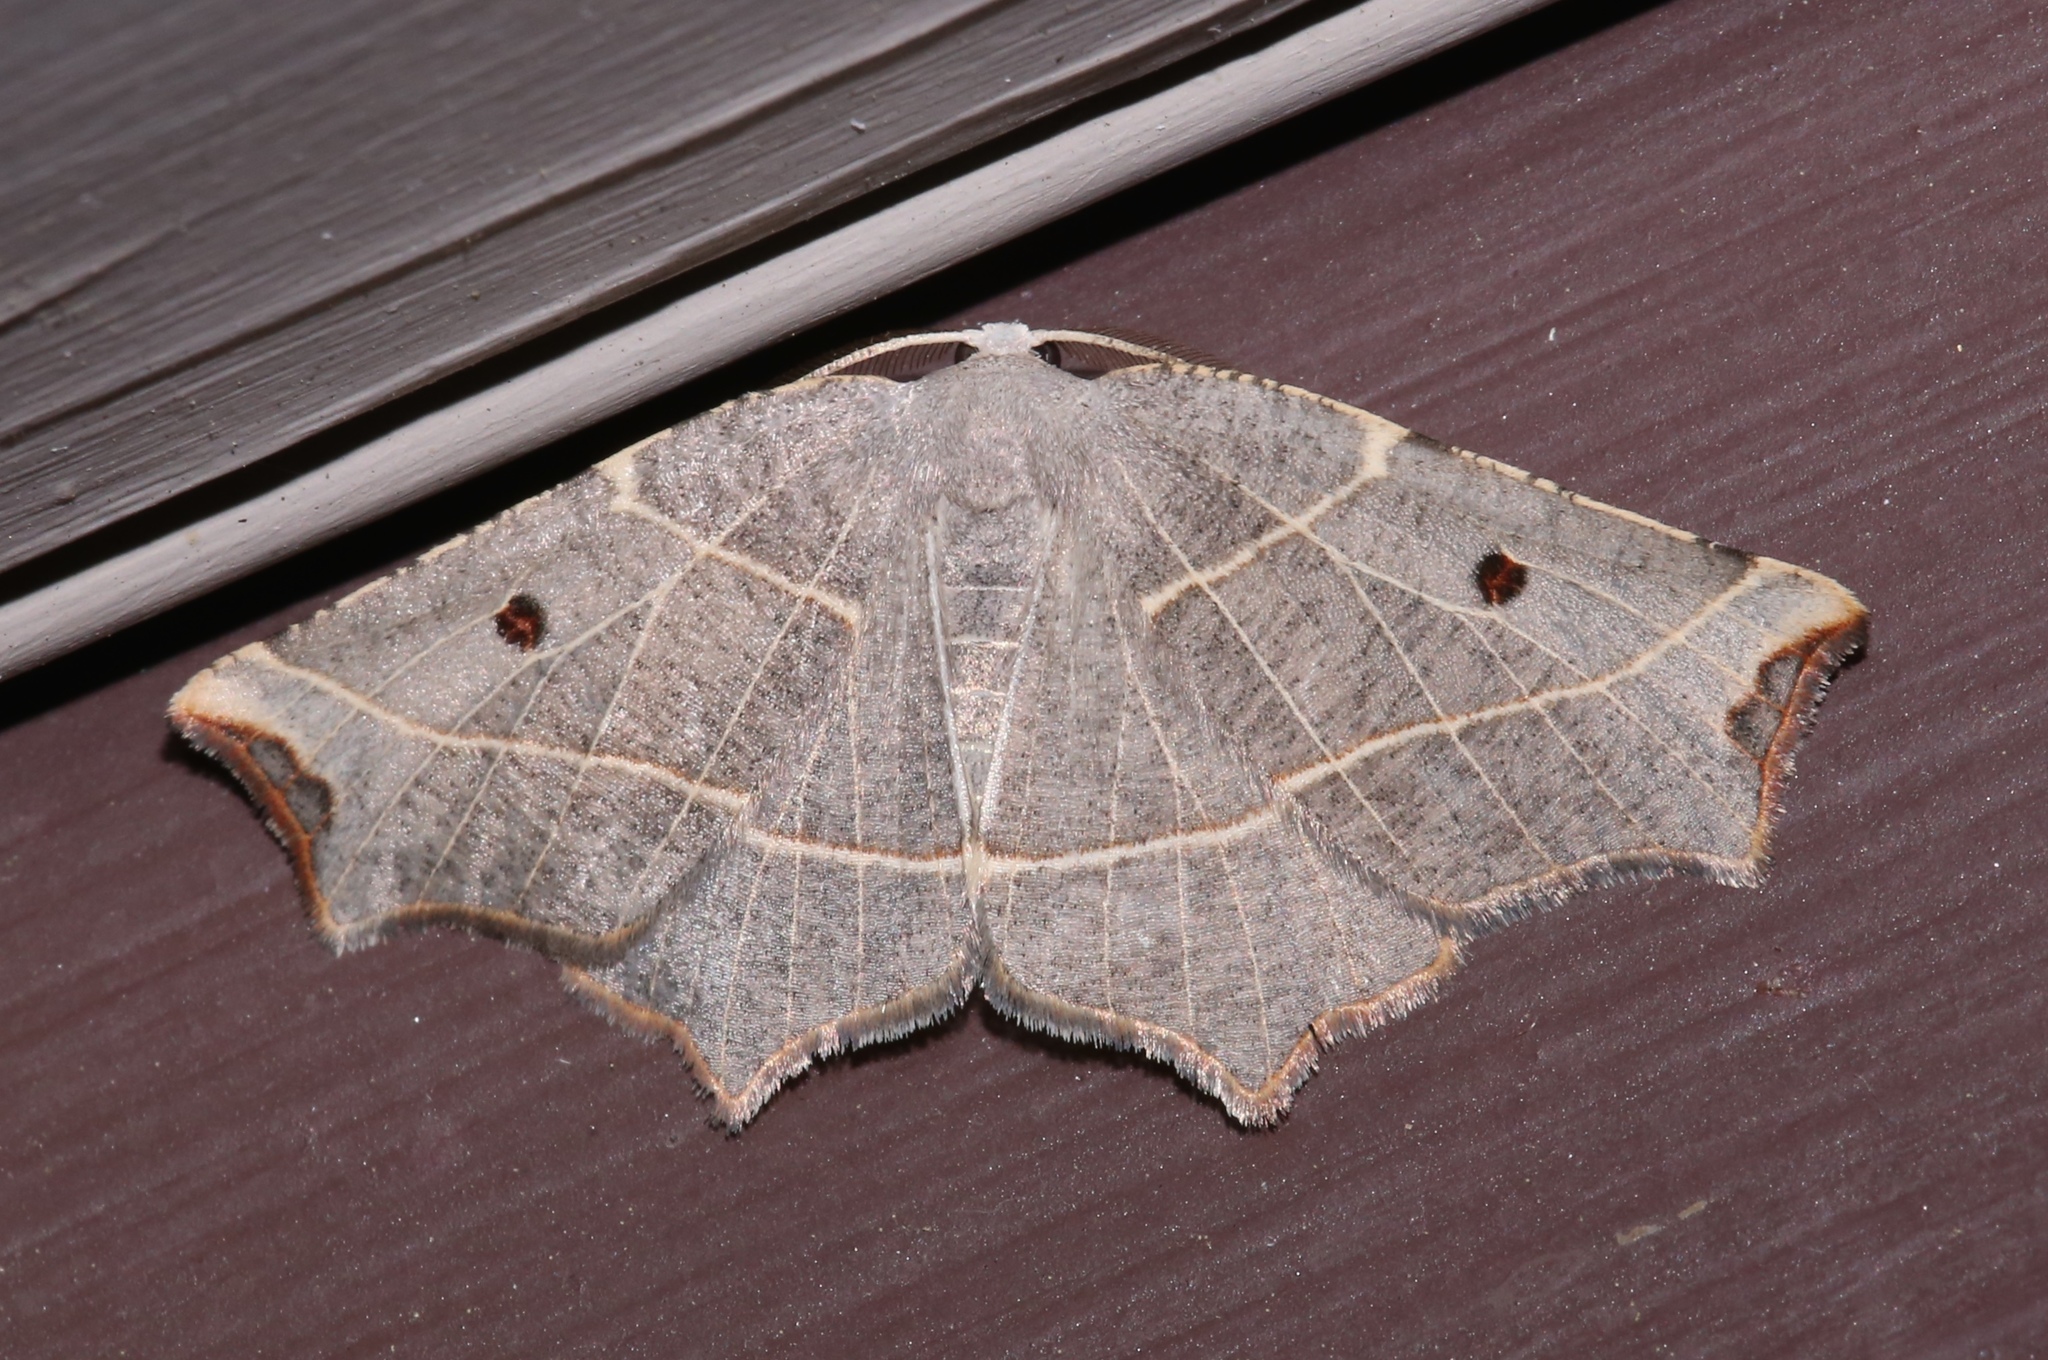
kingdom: Animalia
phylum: Arthropoda
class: Insecta
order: Lepidoptera
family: Geometridae
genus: Metanema
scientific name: Metanema inatomaria
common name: Pale metanema
